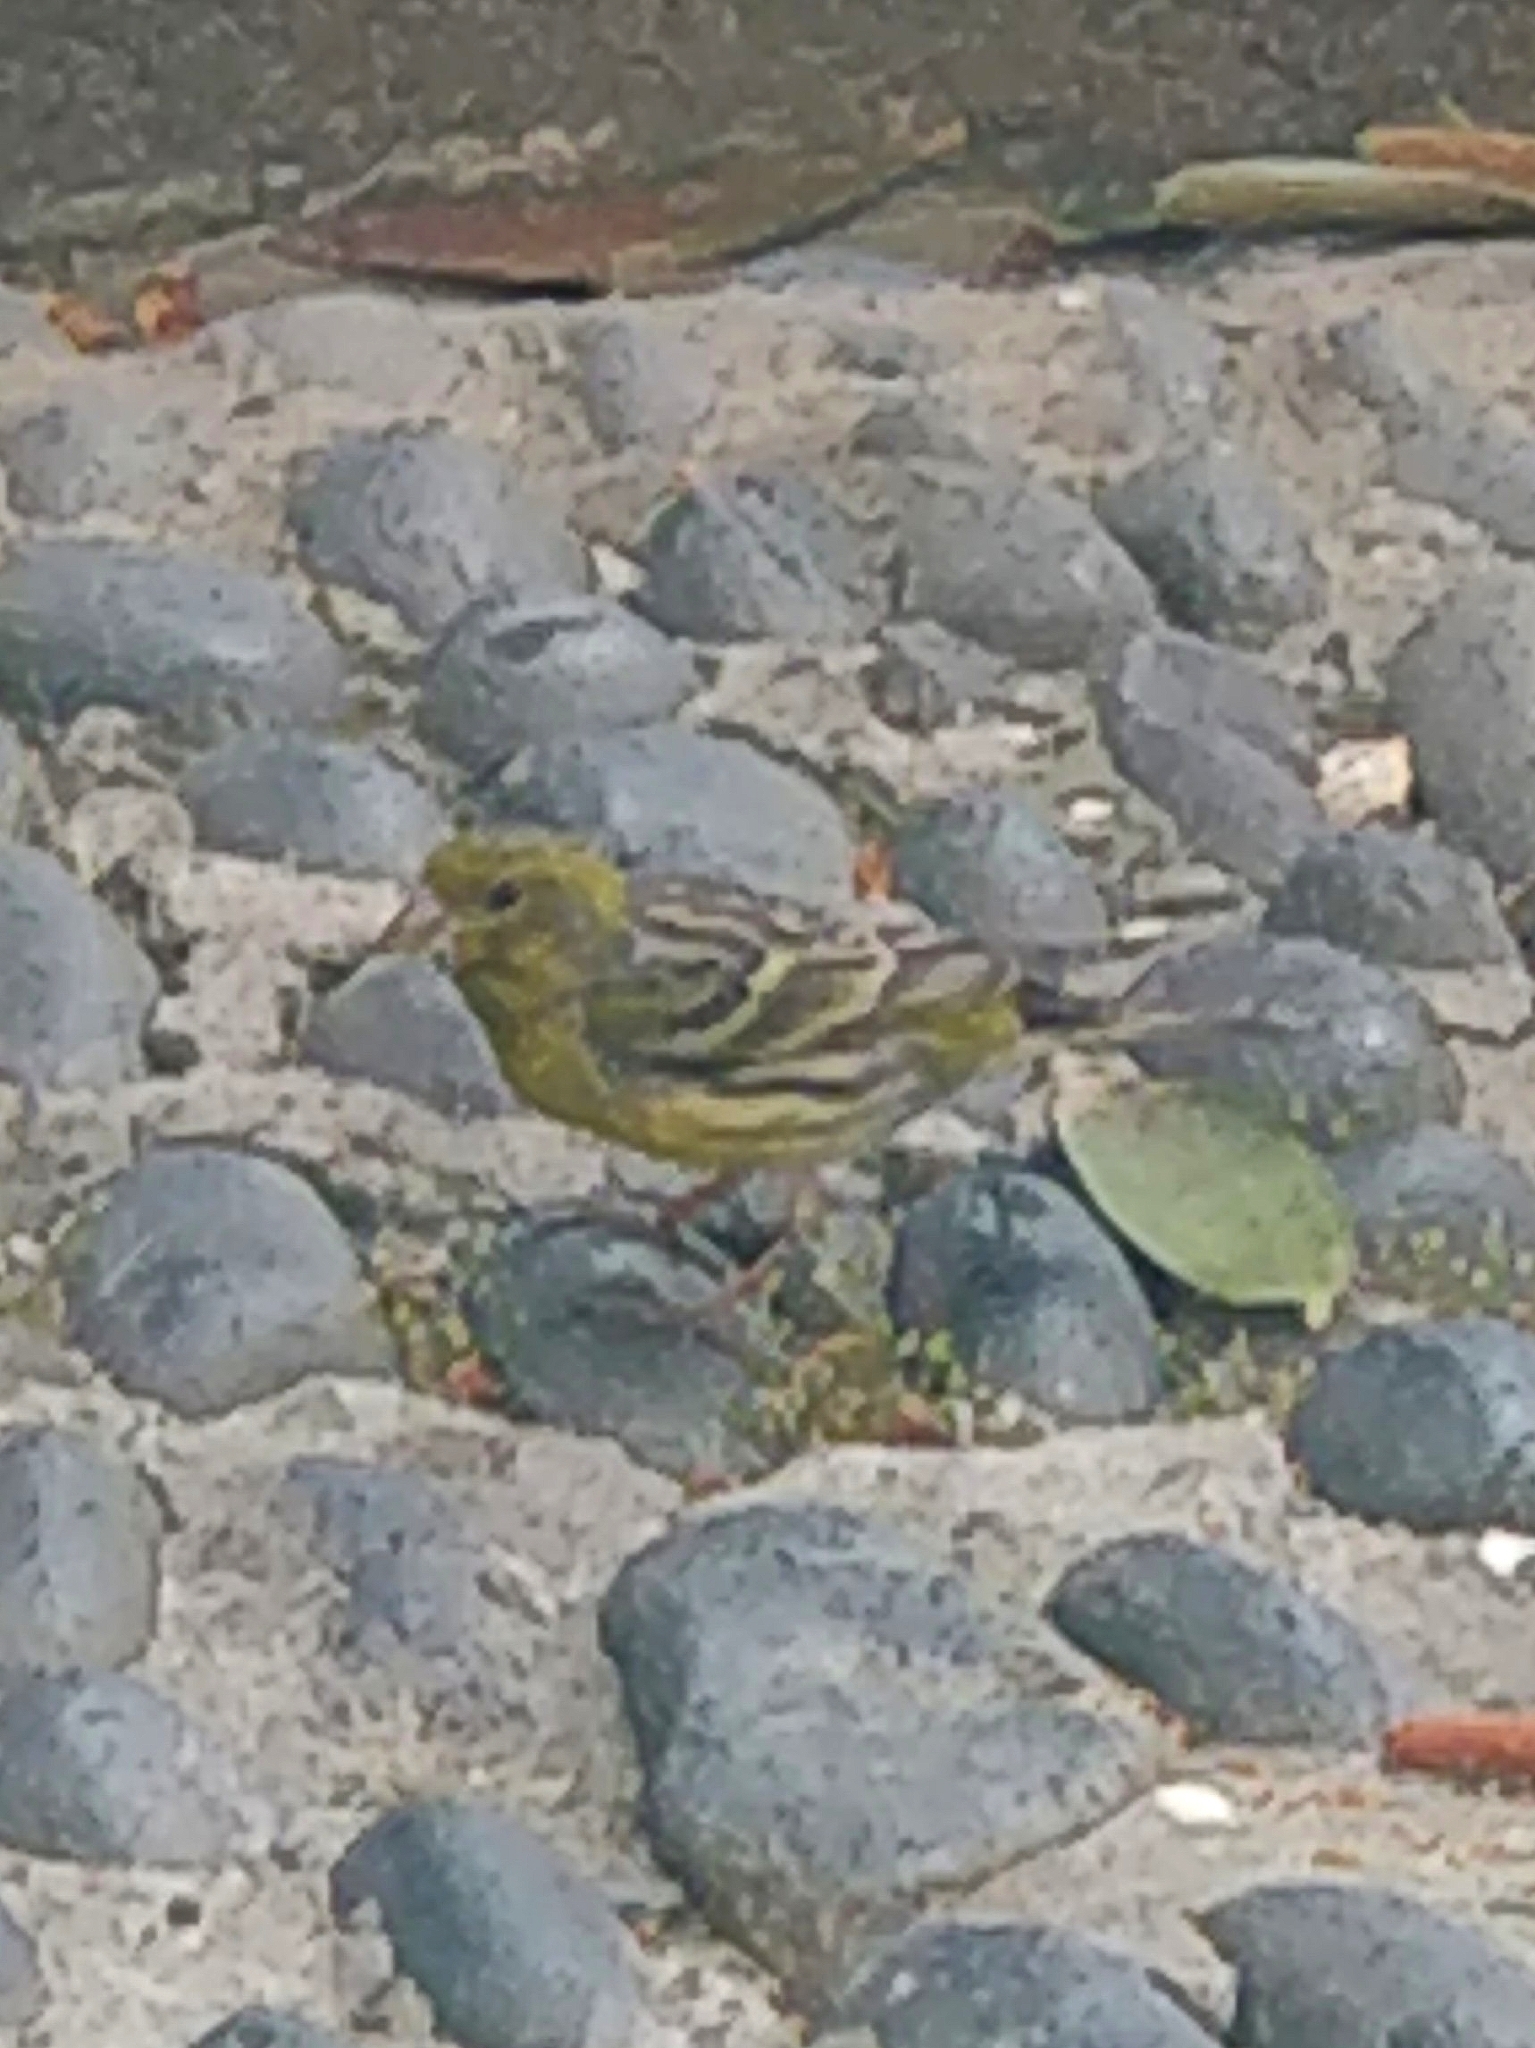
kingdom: Animalia
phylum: Chordata
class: Aves
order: Passeriformes
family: Fringillidae
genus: Serinus
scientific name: Serinus canaria
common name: Atlantic canary
